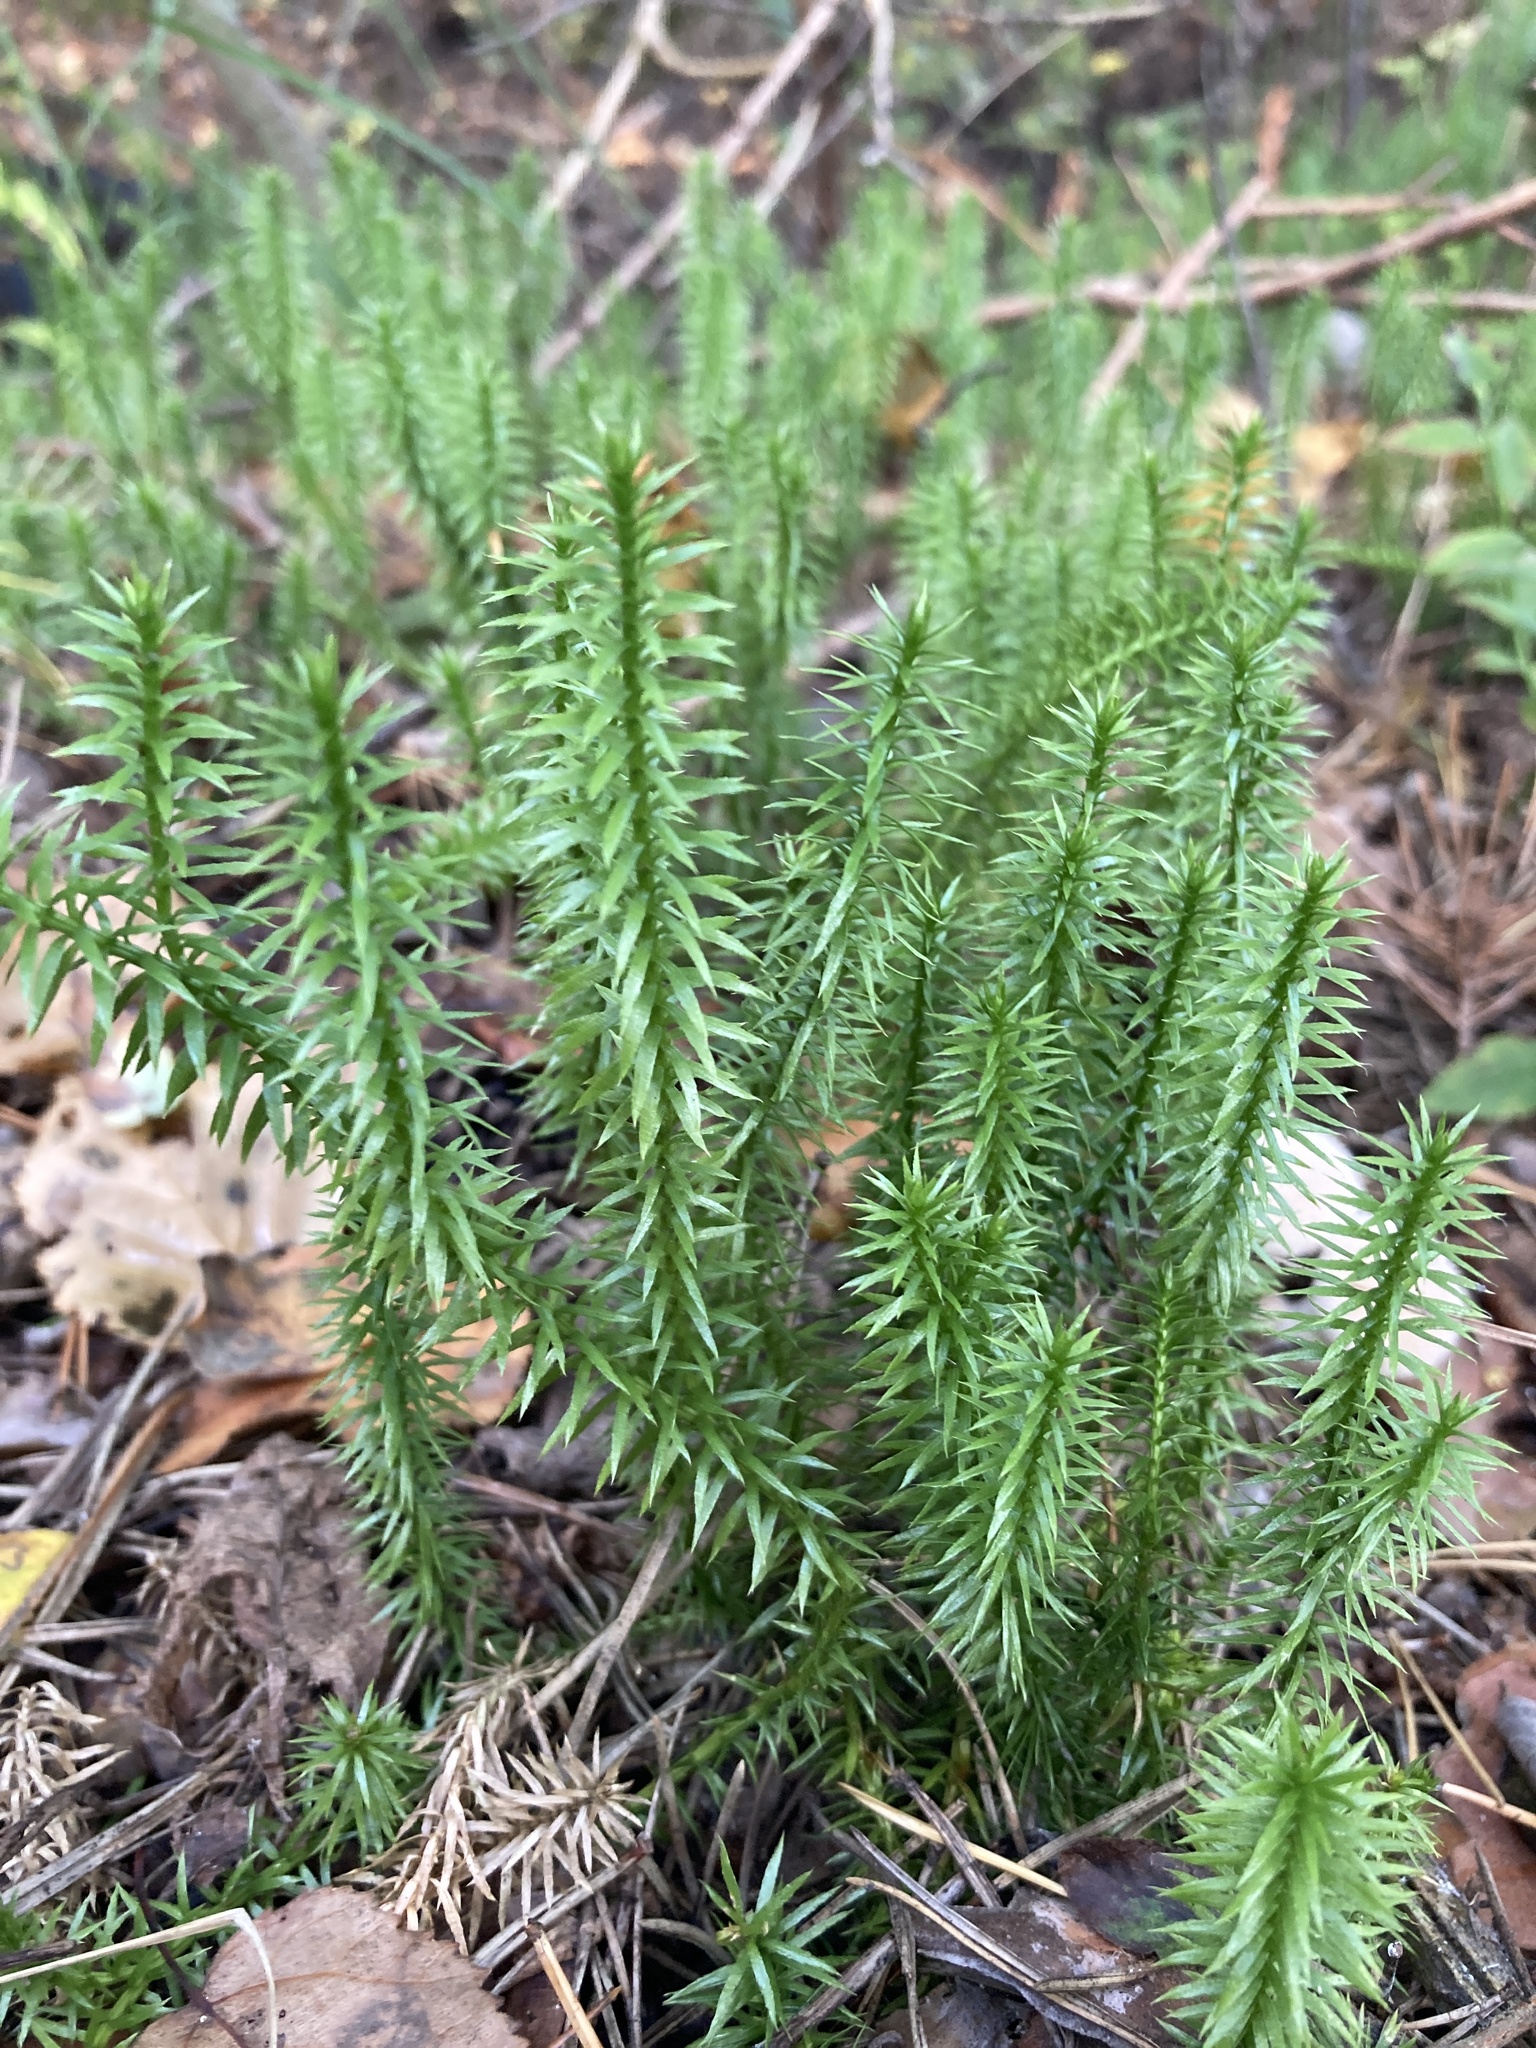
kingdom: Plantae
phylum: Tracheophyta
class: Lycopodiopsida
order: Lycopodiales
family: Lycopodiaceae
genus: Spinulum
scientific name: Spinulum annotinum
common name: Interrupted club-moss
